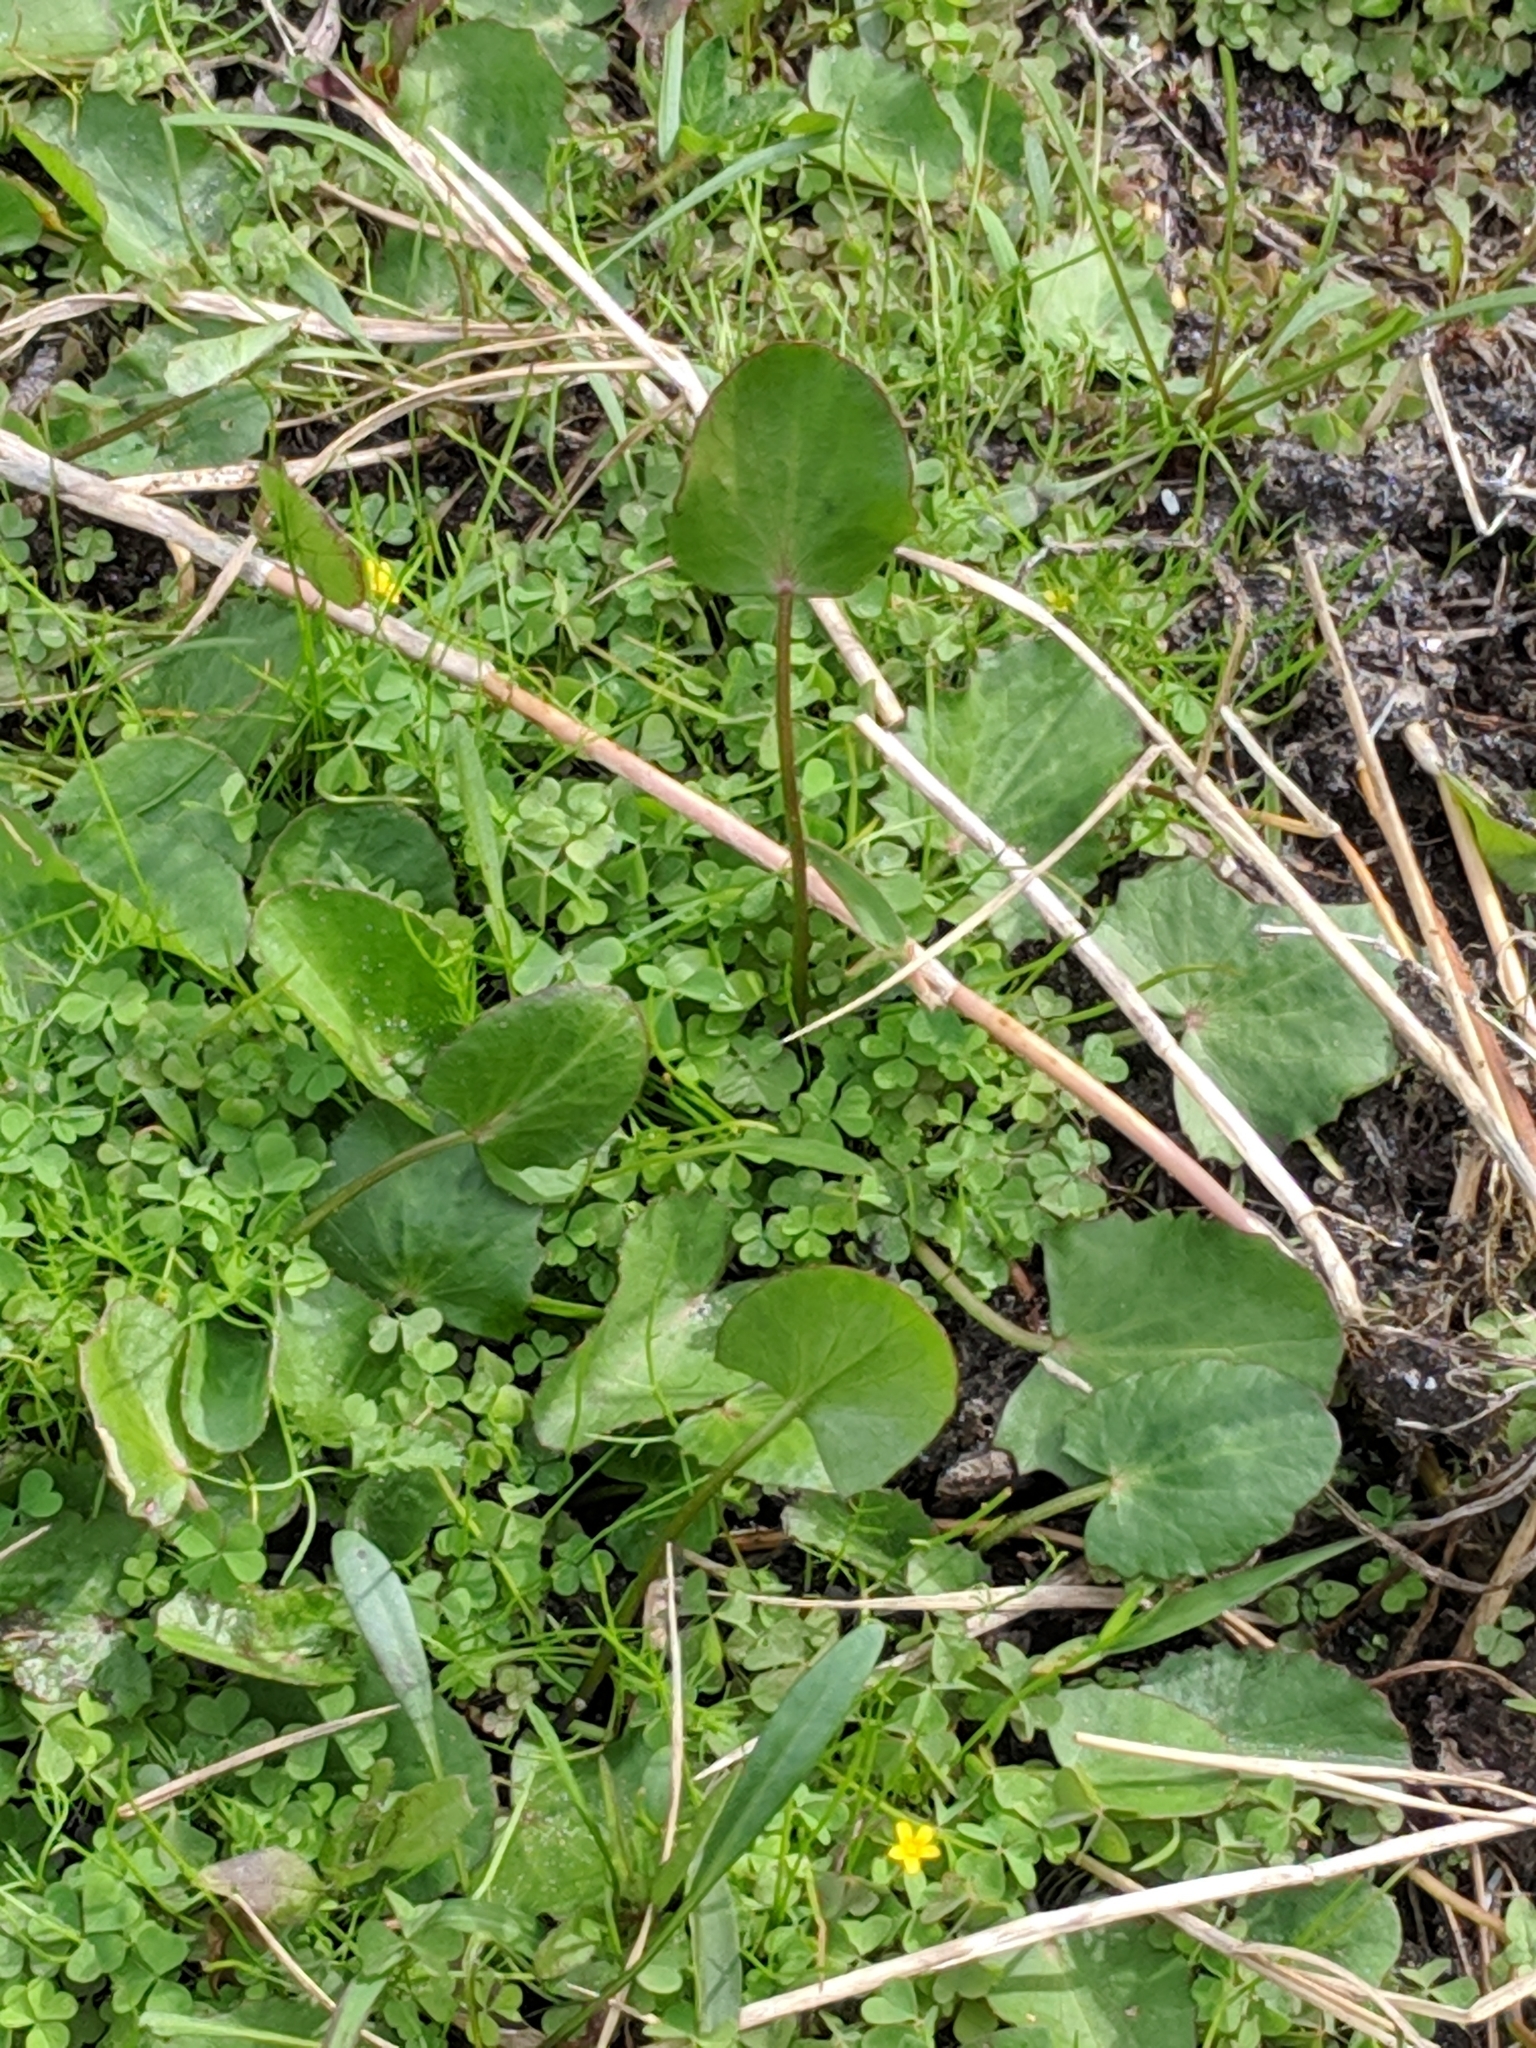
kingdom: Plantae
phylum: Tracheophyta
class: Magnoliopsida
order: Apiales
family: Apiaceae
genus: Centella
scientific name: Centella erecta
